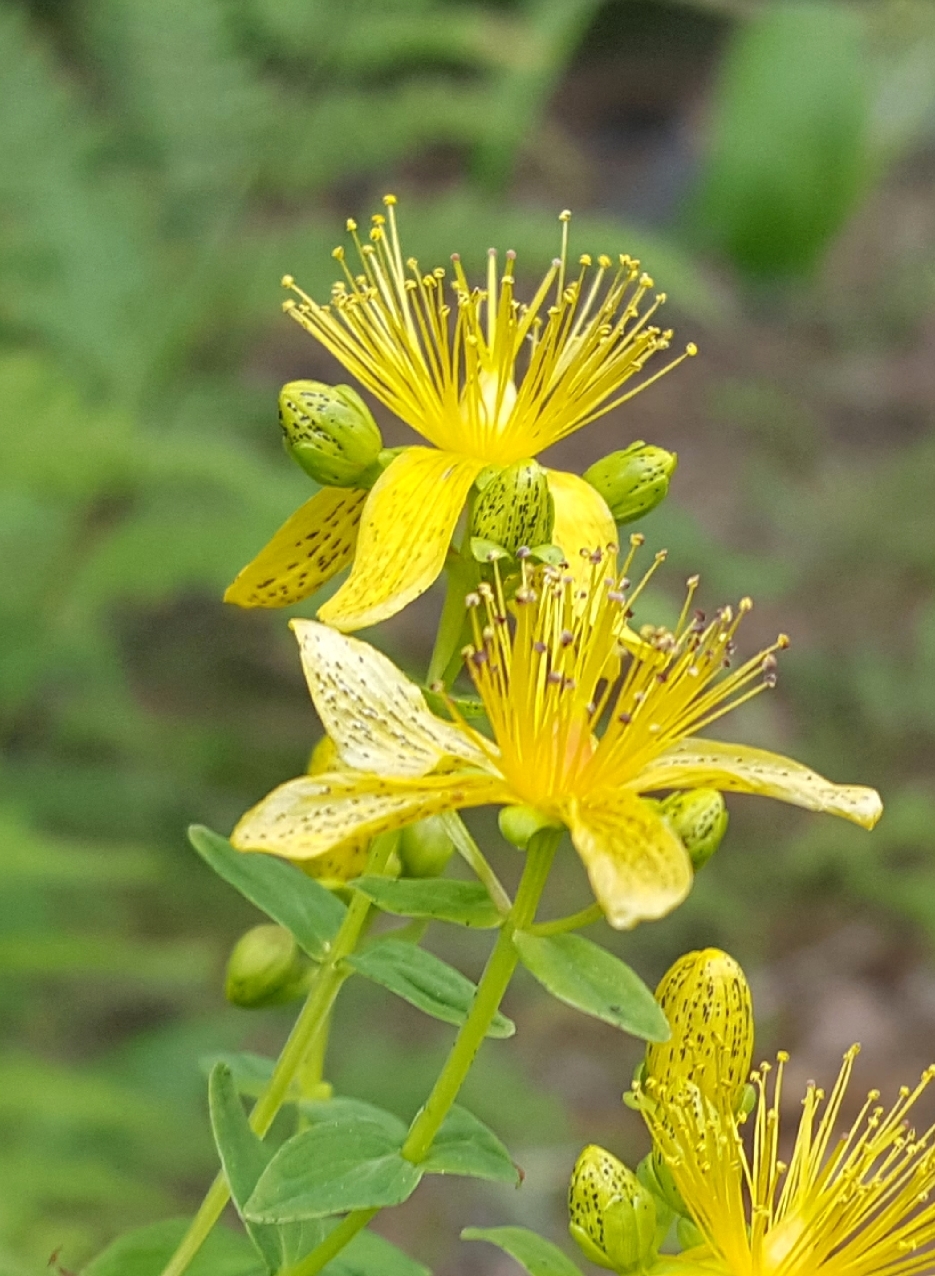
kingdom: Plantae
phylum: Tracheophyta
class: Magnoliopsida
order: Malpighiales
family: Hypericaceae
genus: Hypericum
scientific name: Hypericum maculatum
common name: Imperforate st. john's-wort
